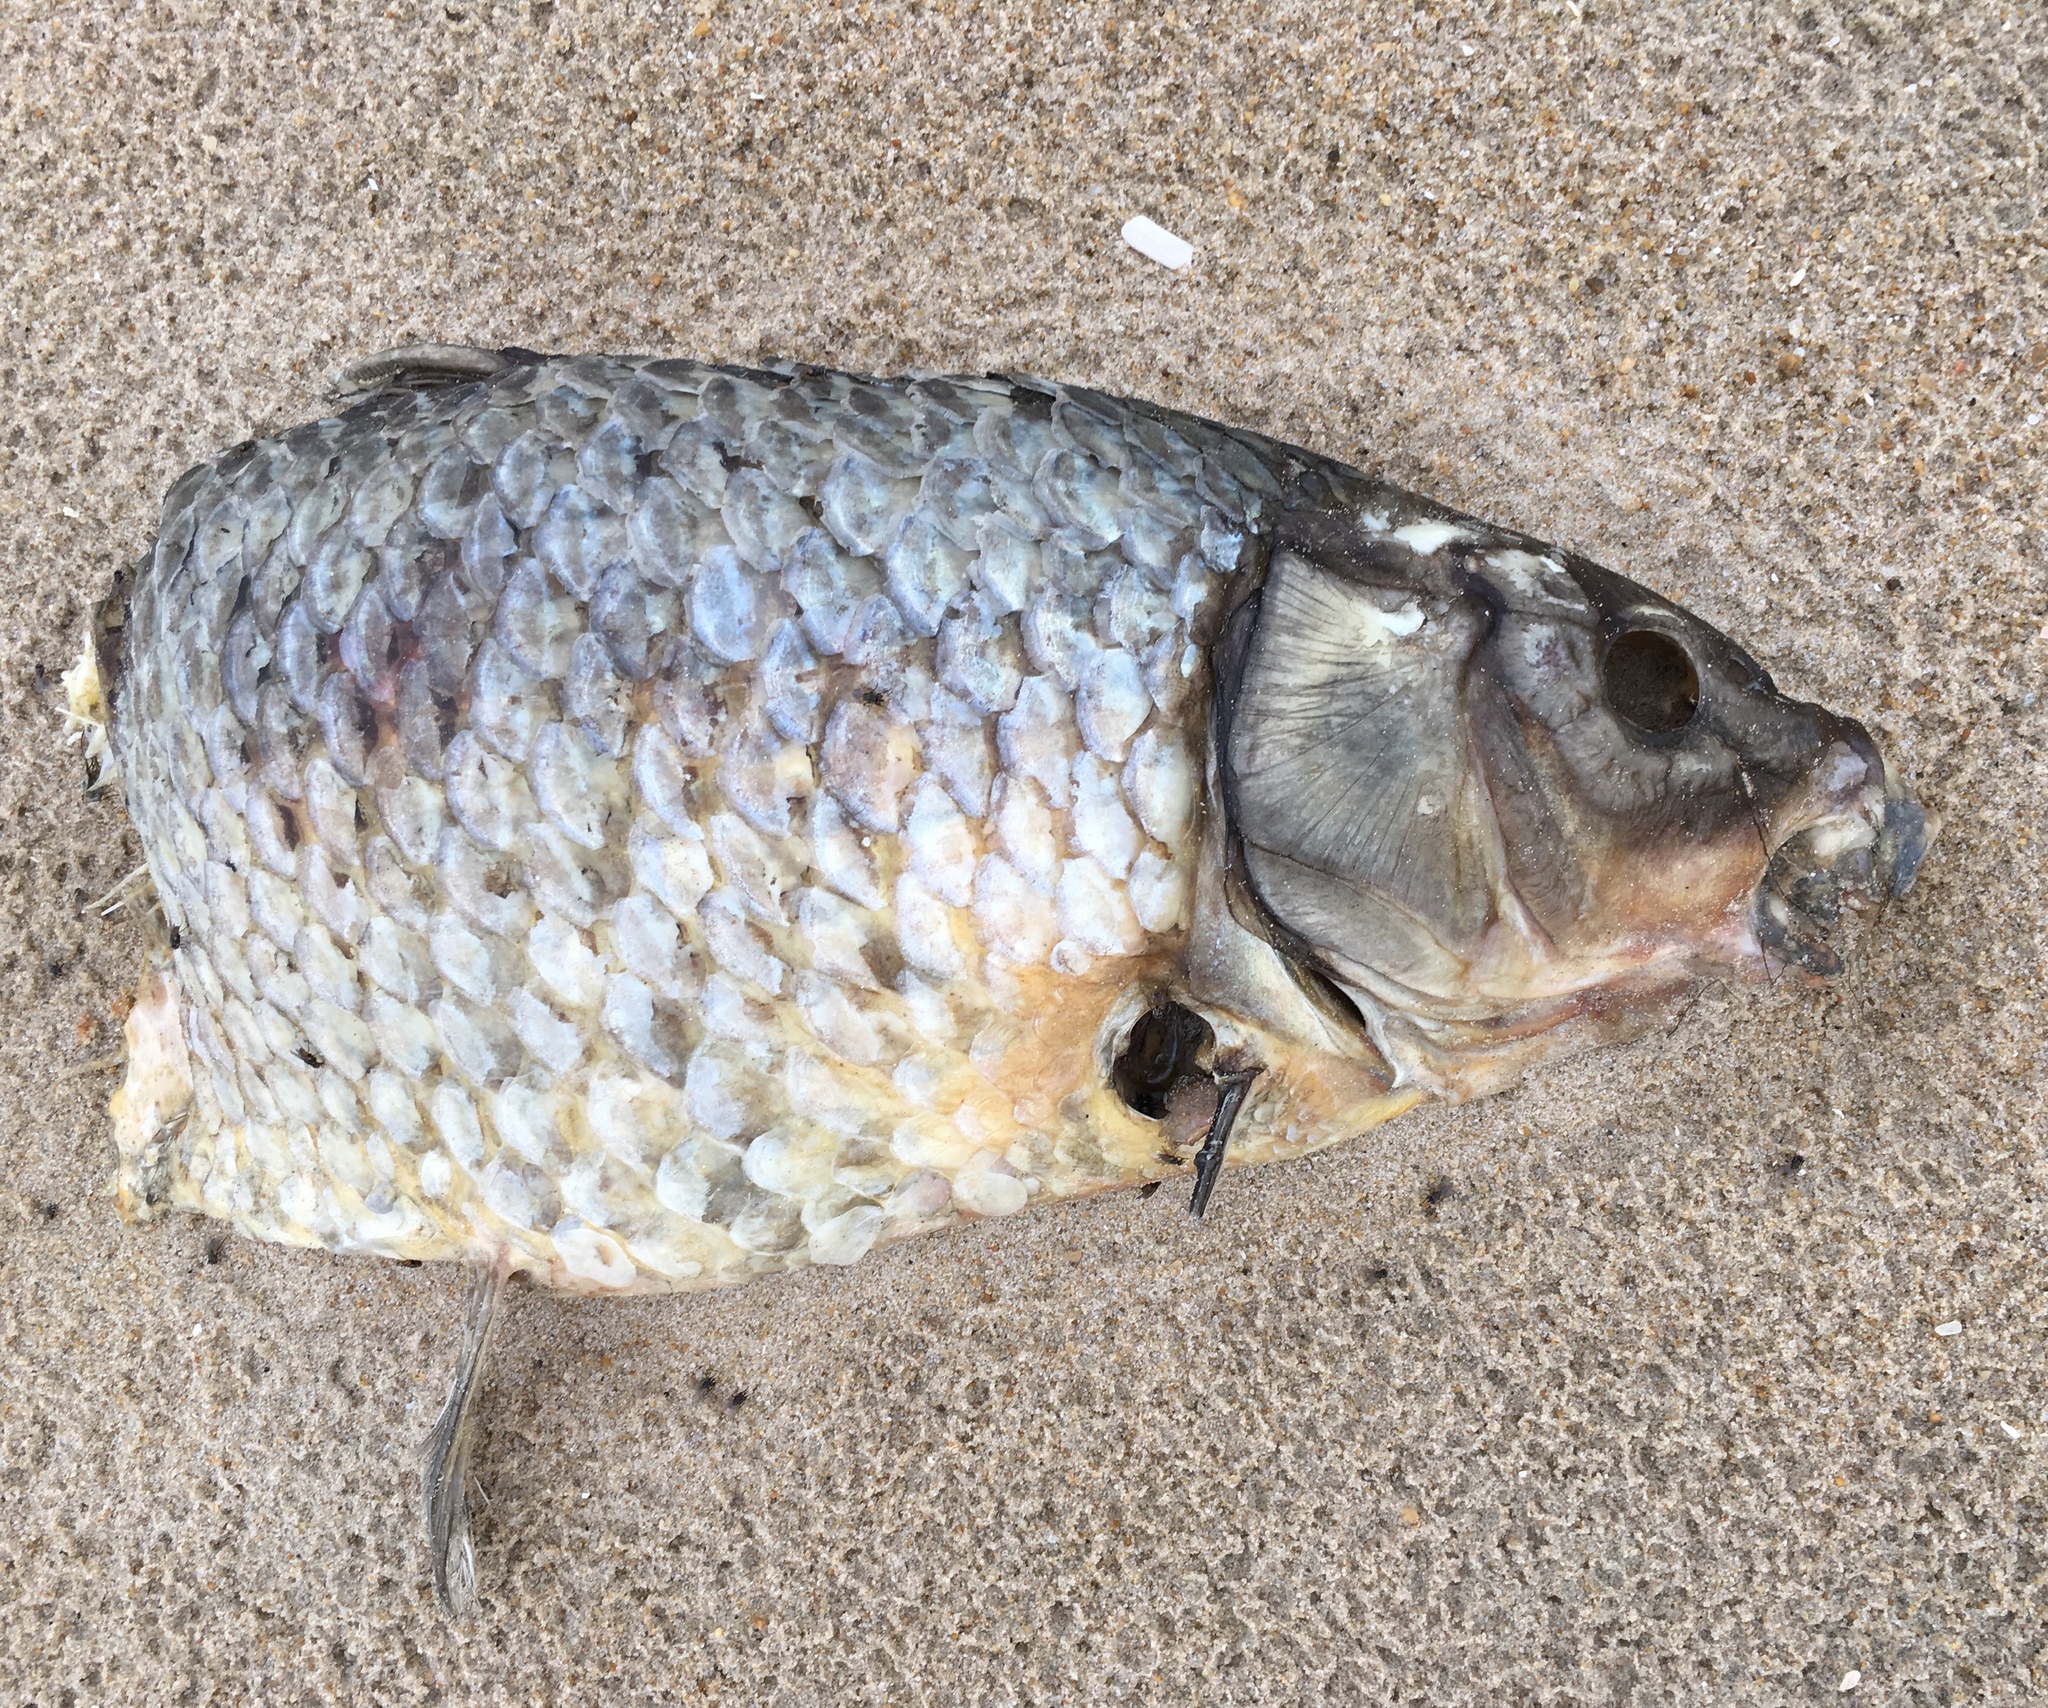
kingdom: Animalia
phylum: Chordata
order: Cypriniformes
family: Cyprinidae
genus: Cyprinus
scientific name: Cyprinus carpio
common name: Common carp
